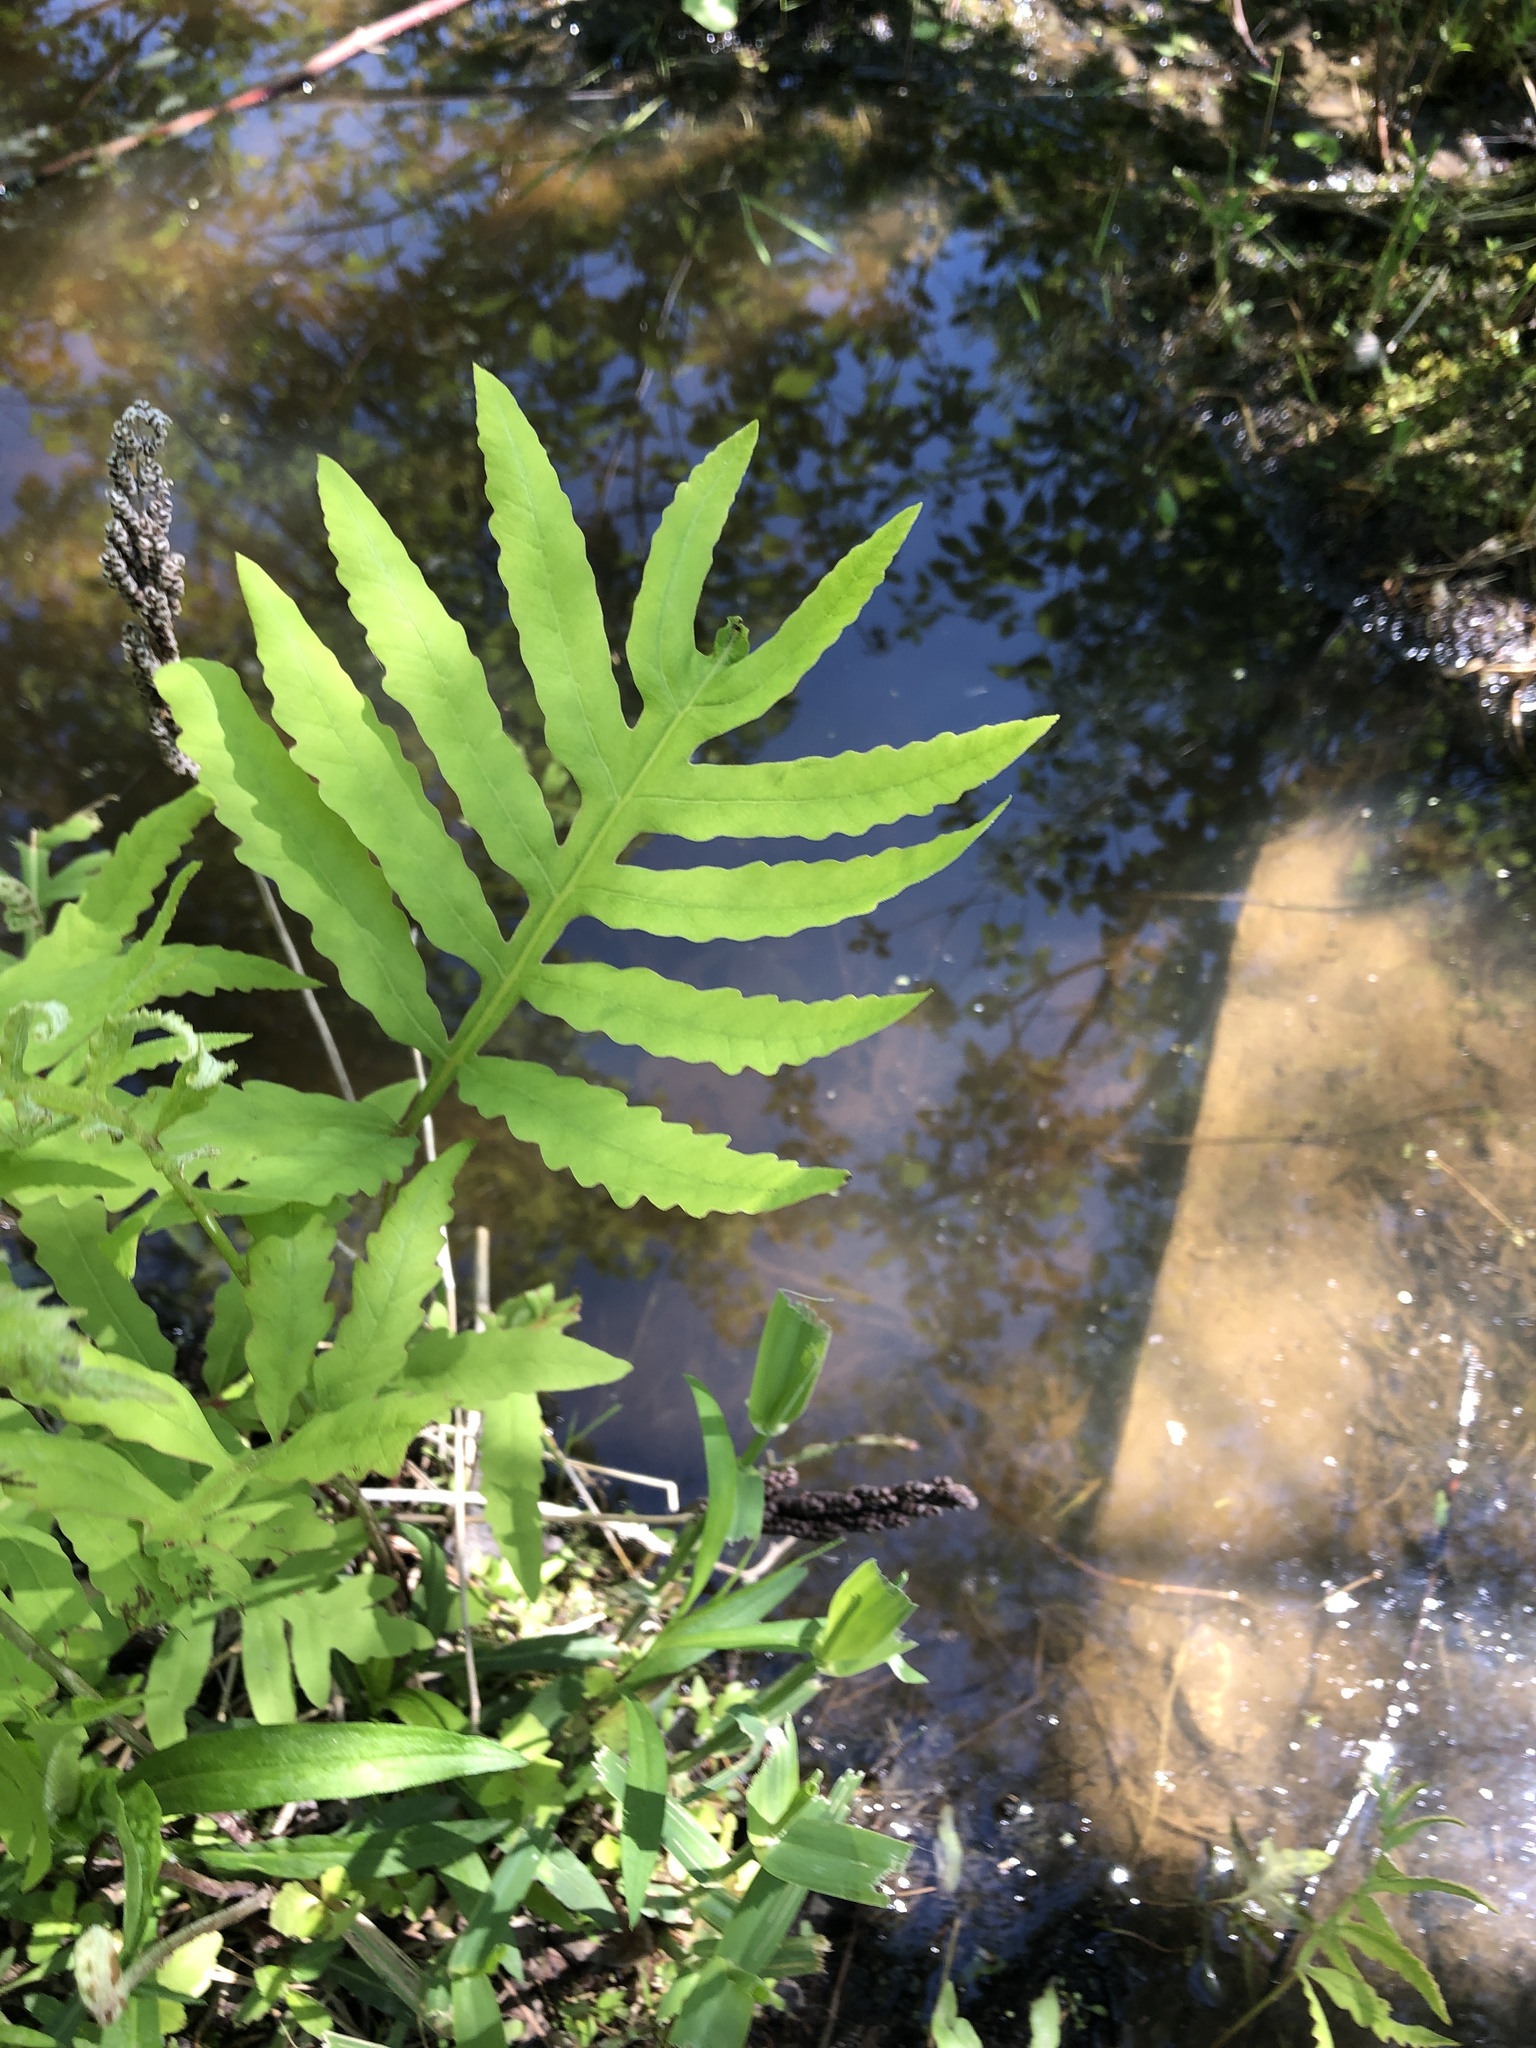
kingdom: Plantae
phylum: Tracheophyta
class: Polypodiopsida
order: Polypodiales
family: Onocleaceae
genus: Onoclea
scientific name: Onoclea sensibilis
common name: Sensitive fern
